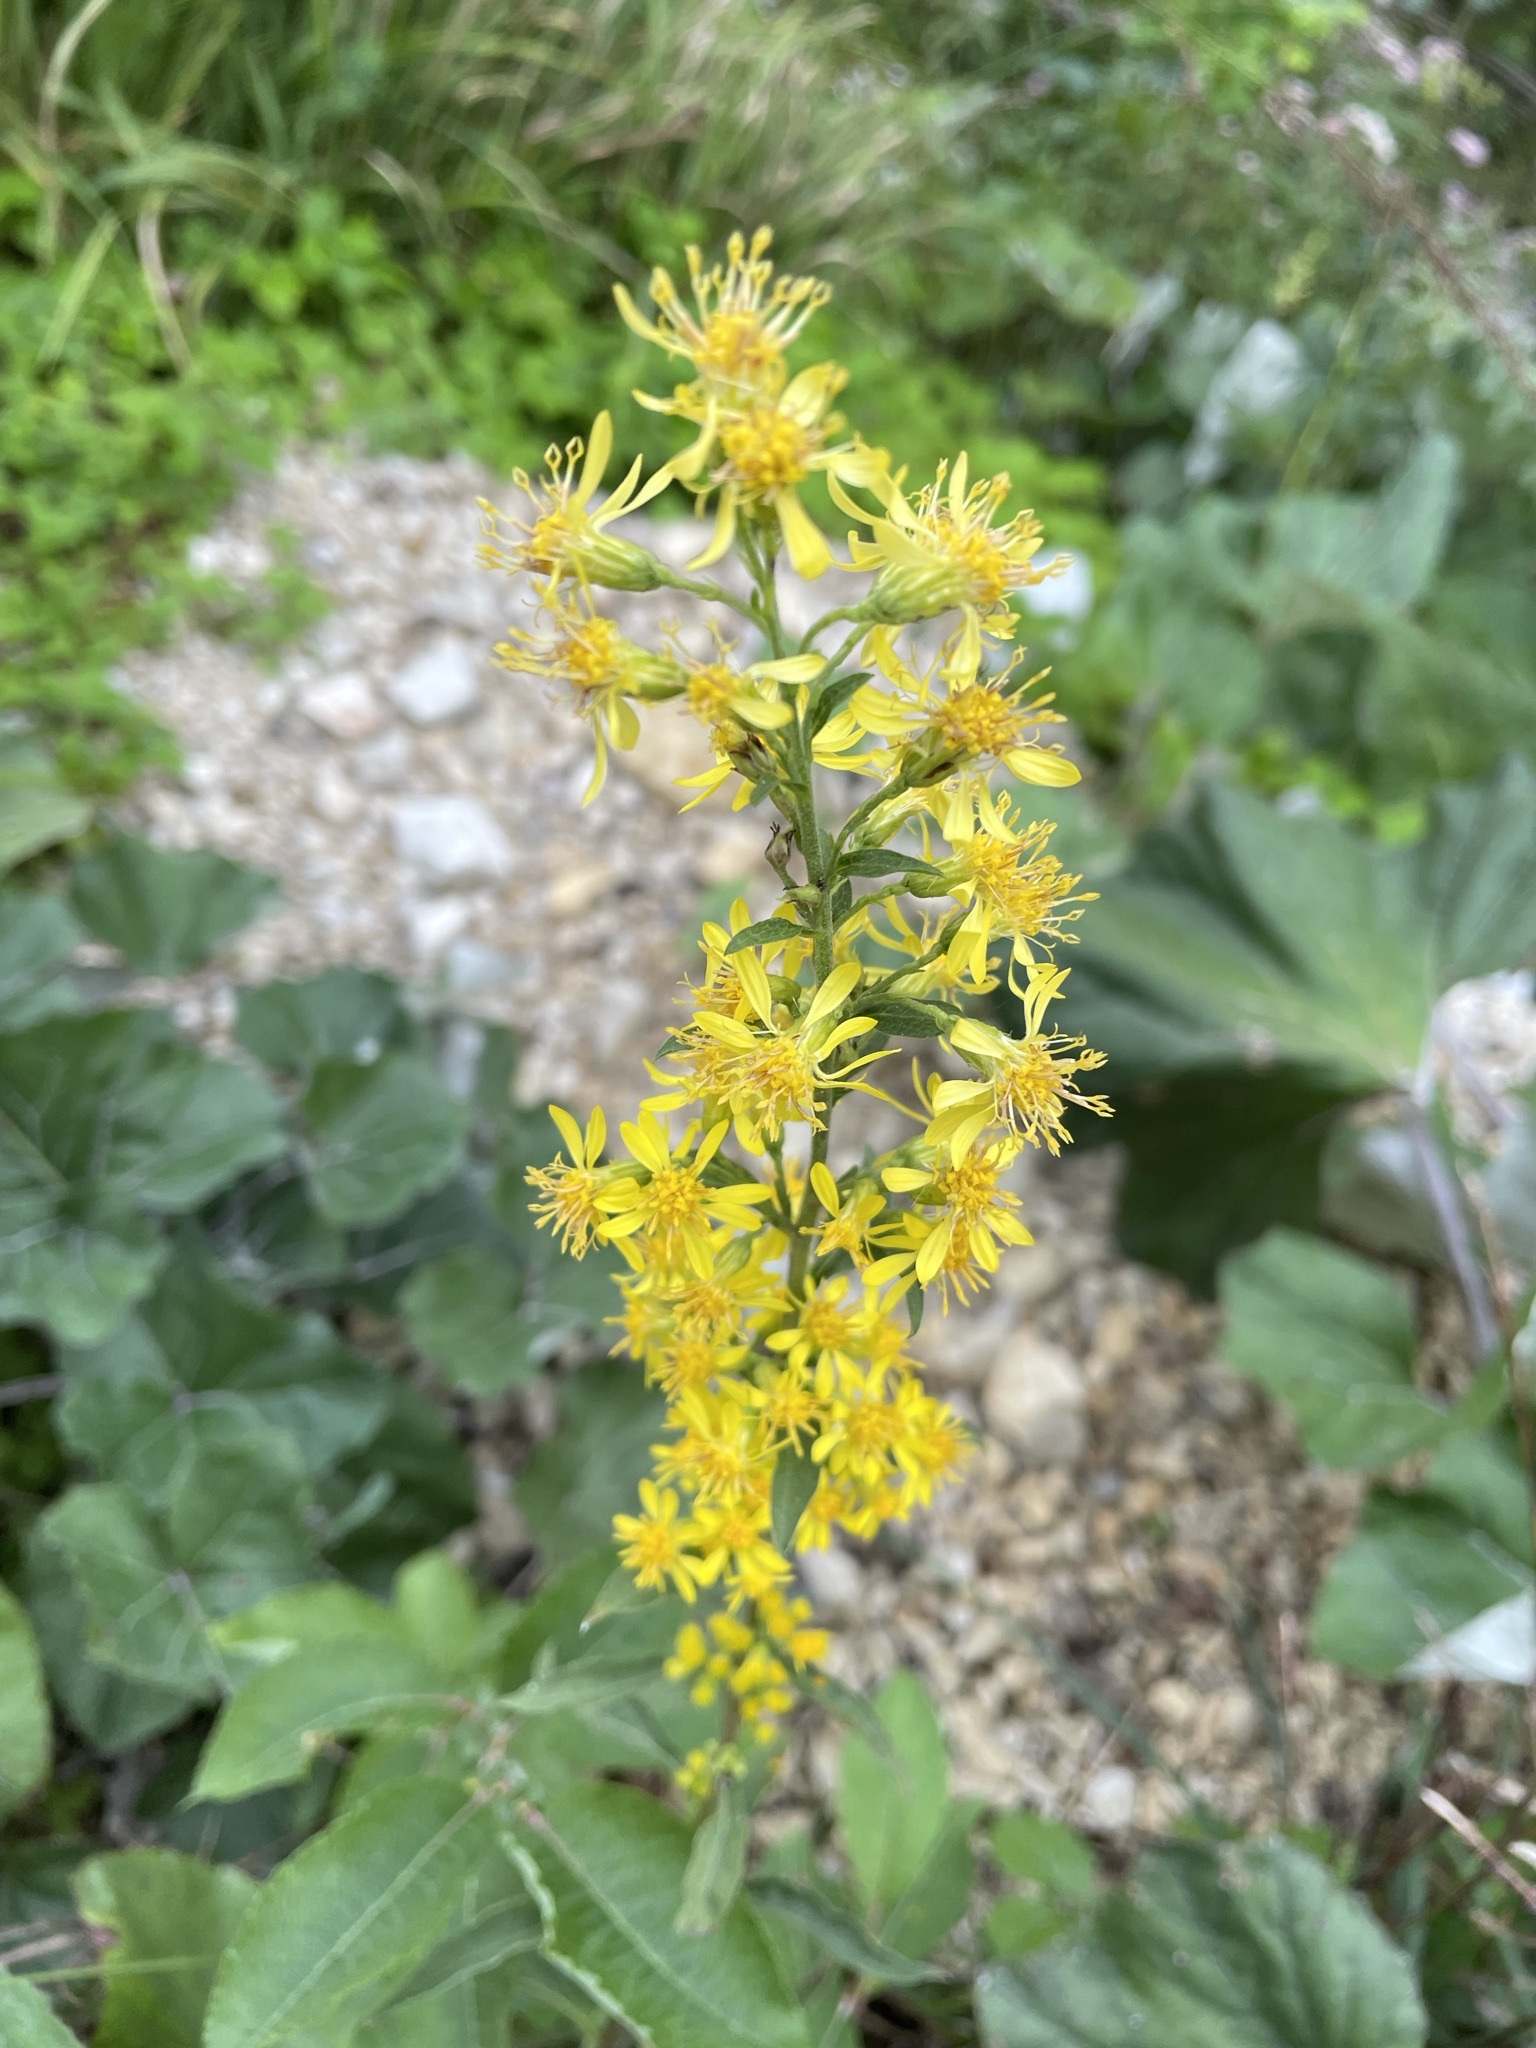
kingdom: Plantae
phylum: Tracheophyta
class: Magnoliopsida
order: Asterales
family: Asteraceae
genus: Solidago
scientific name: Solidago virgaurea
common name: Goldenrod
